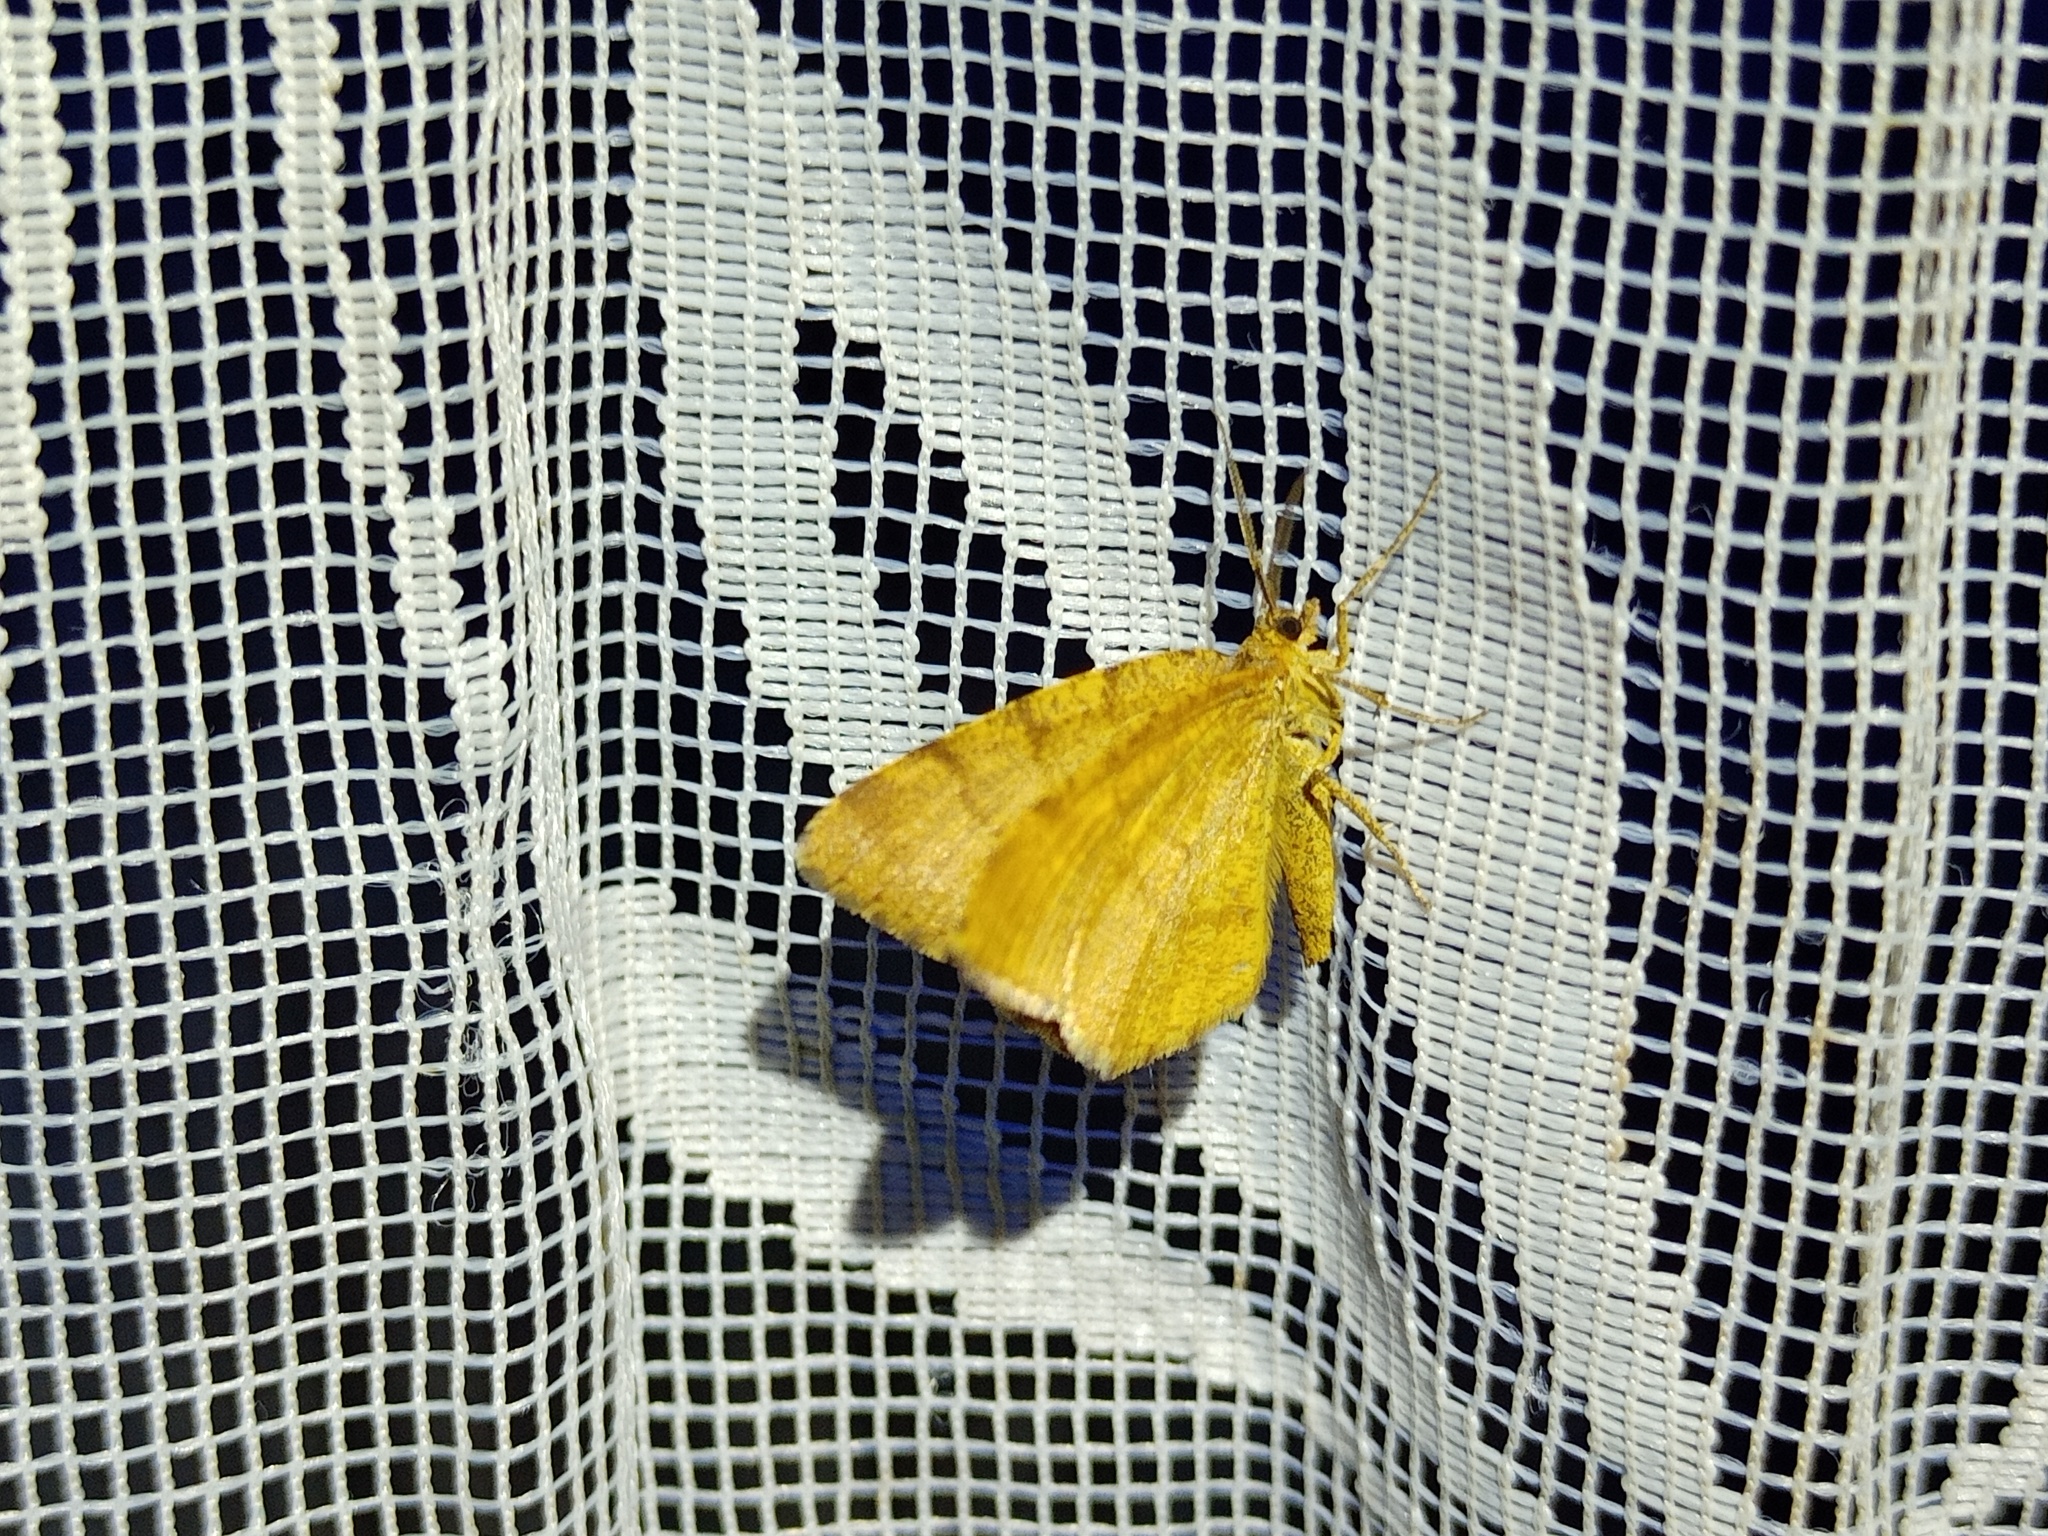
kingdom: Animalia
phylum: Arthropoda
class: Insecta
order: Lepidoptera
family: Geometridae
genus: Macaria
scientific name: Macaria brunneata
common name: Rannoch looper
